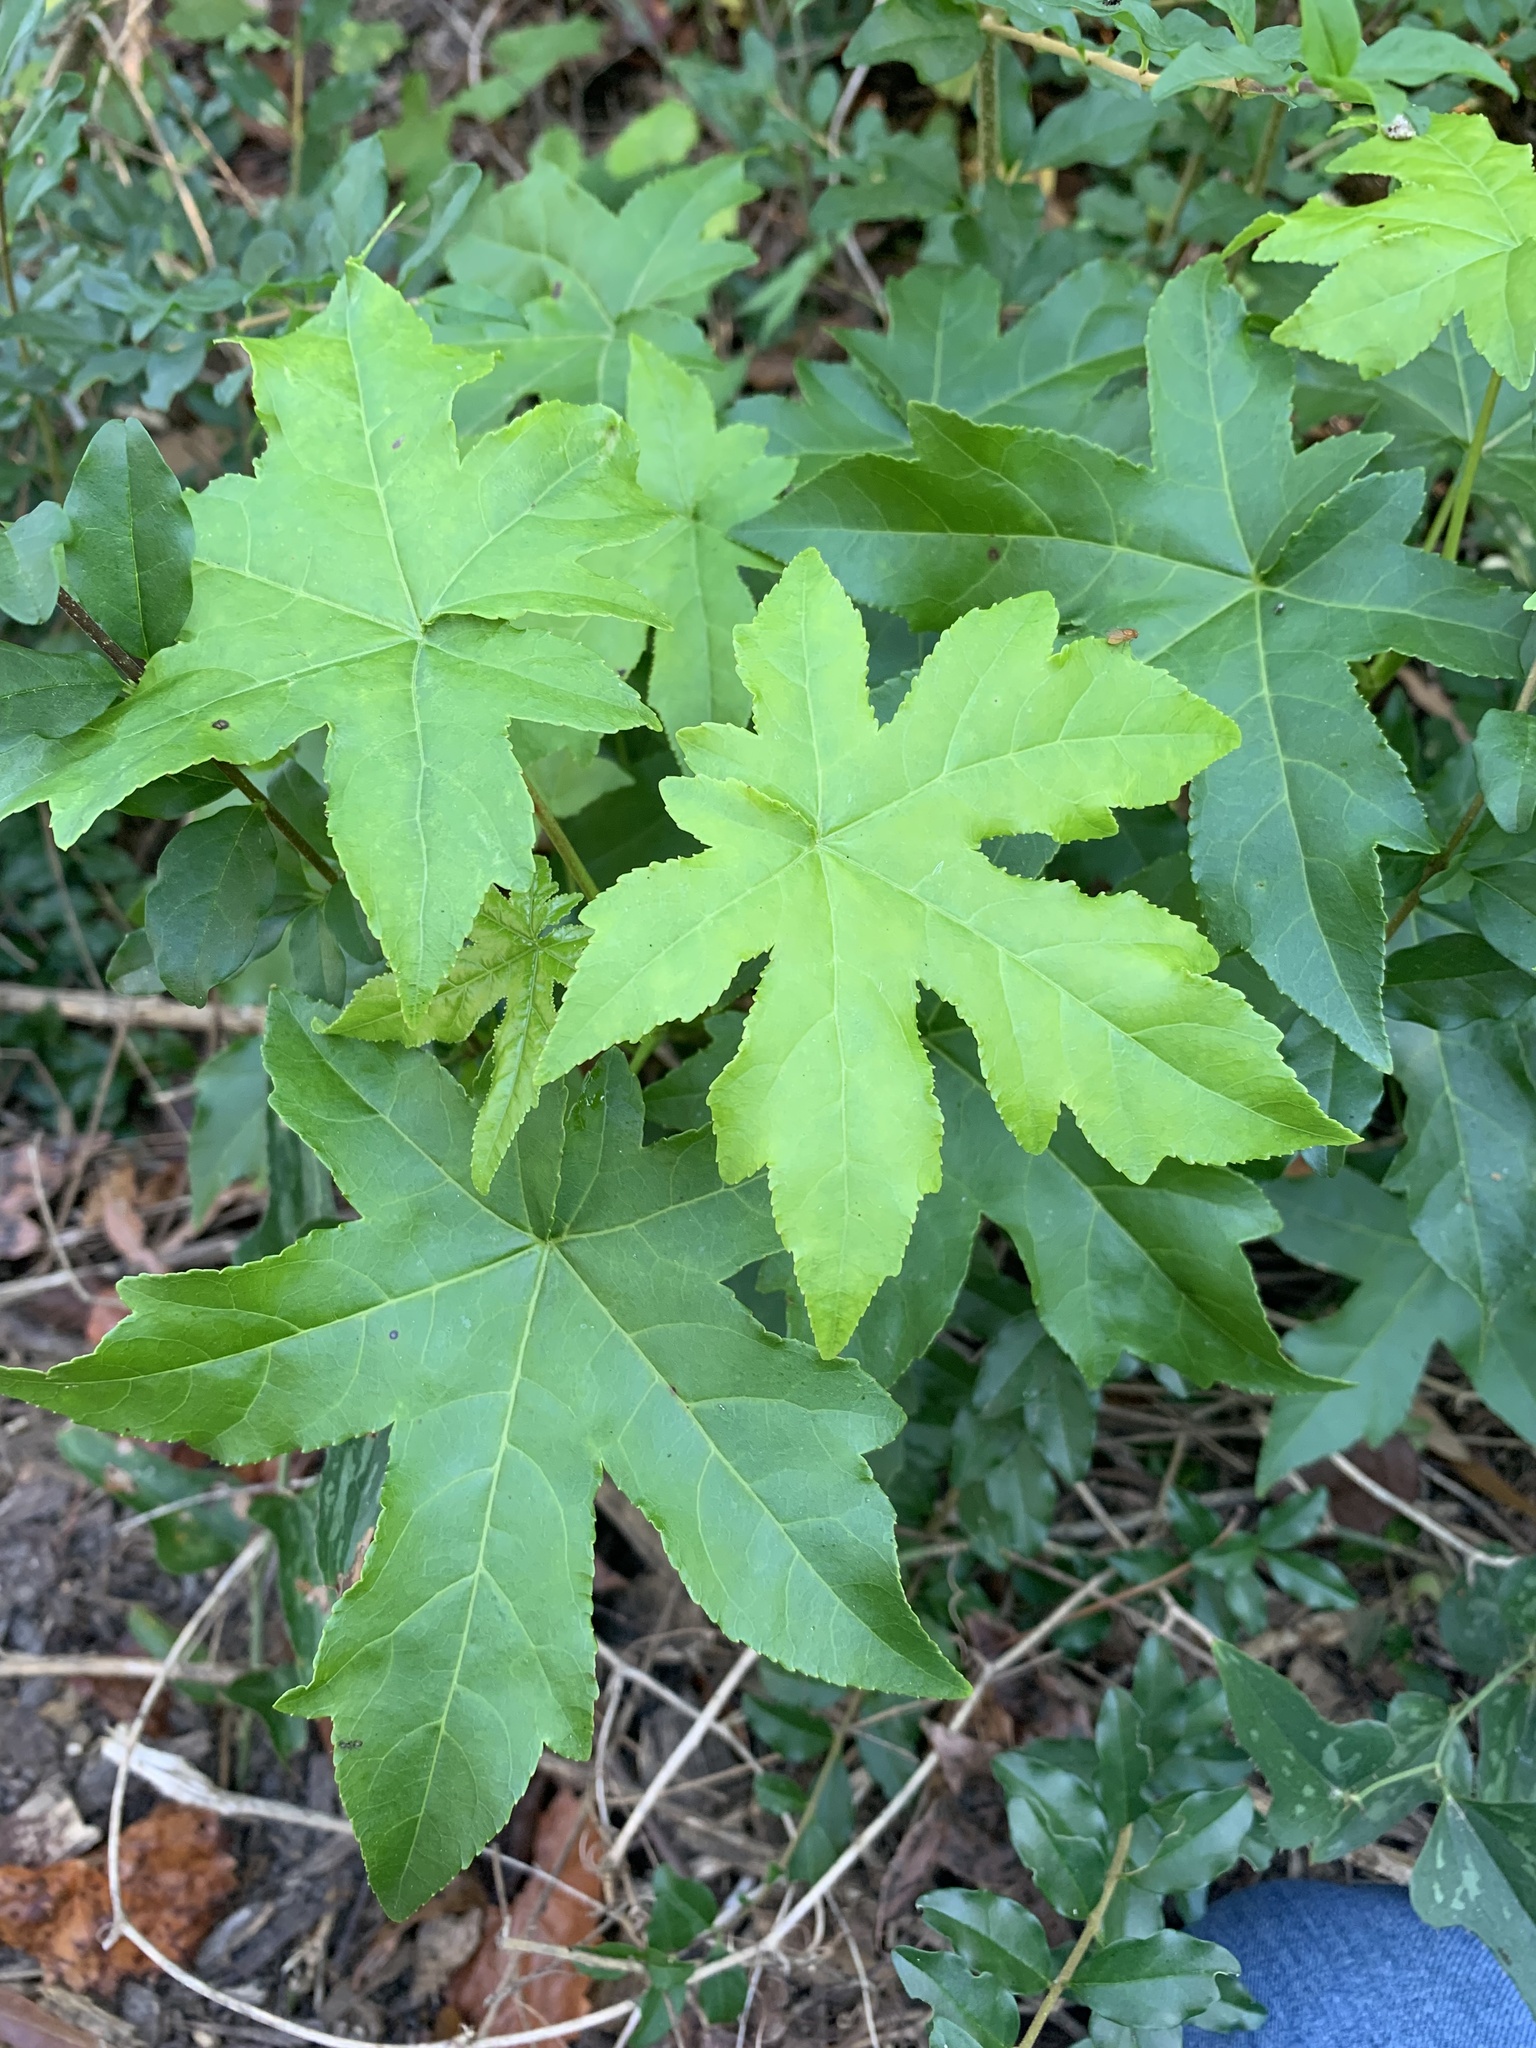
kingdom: Plantae
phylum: Tracheophyta
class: Magnoliopsida
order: Saxifragales
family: Altingiaceae
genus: Liquidambar
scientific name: Liquidambar styraciflua
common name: Sweet gum
